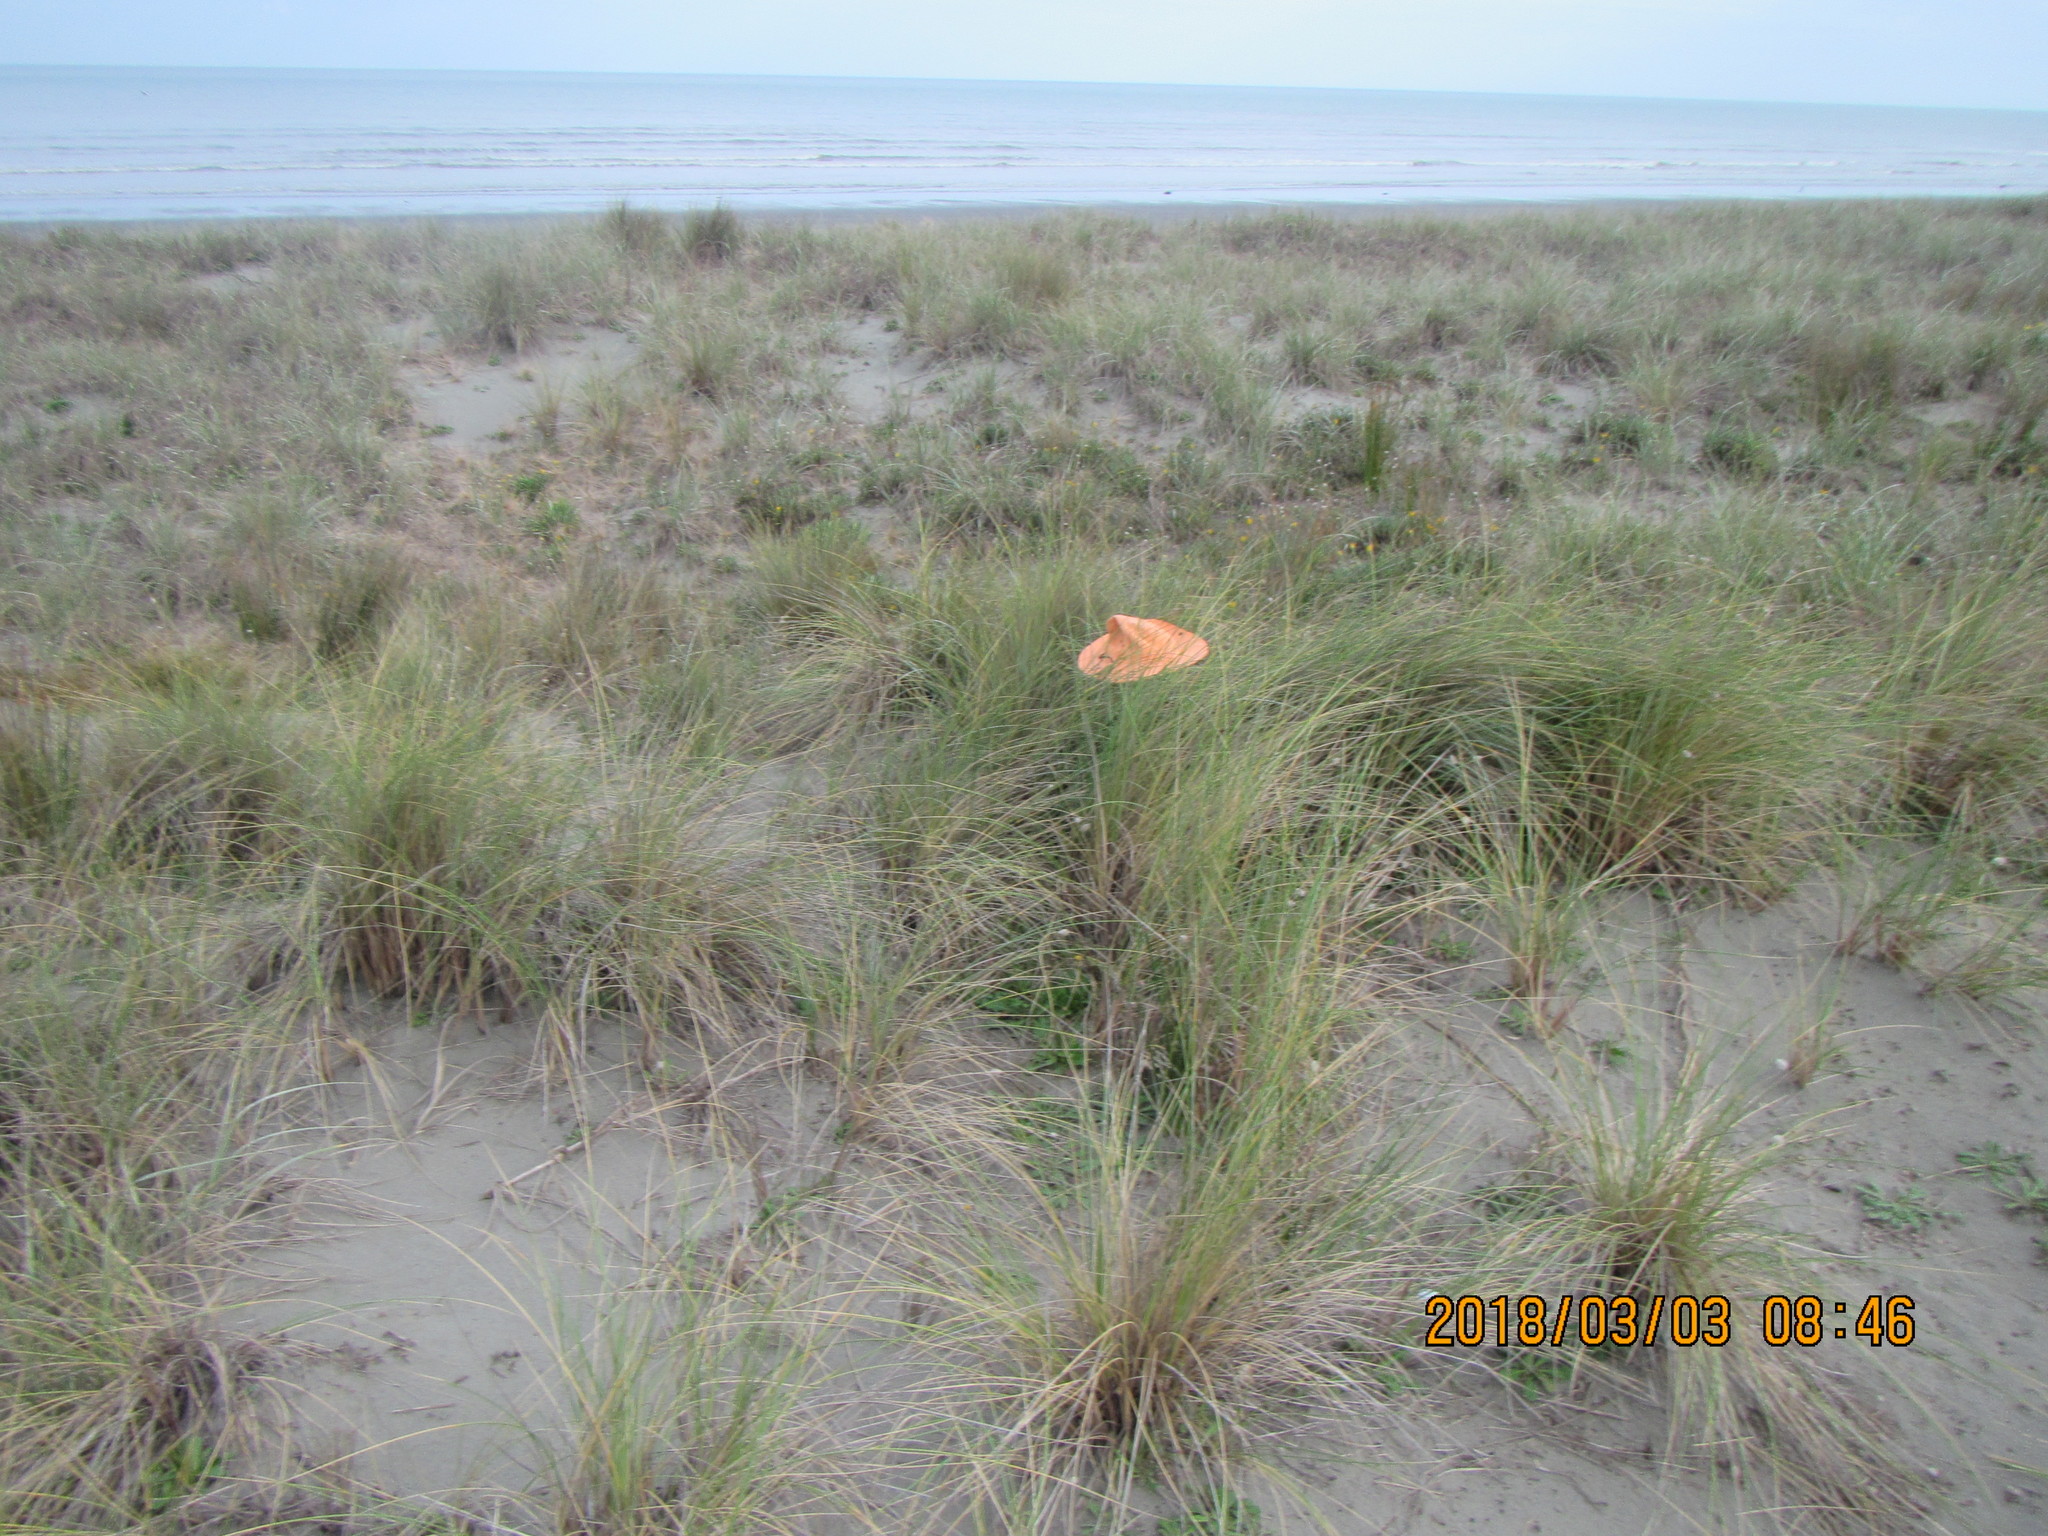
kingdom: Plantae
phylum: Tracheophyta
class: Liliopsida
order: Poales
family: Poaceae
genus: Calamagrostis
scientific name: Calamagrostis arenaria
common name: European beachgrass
